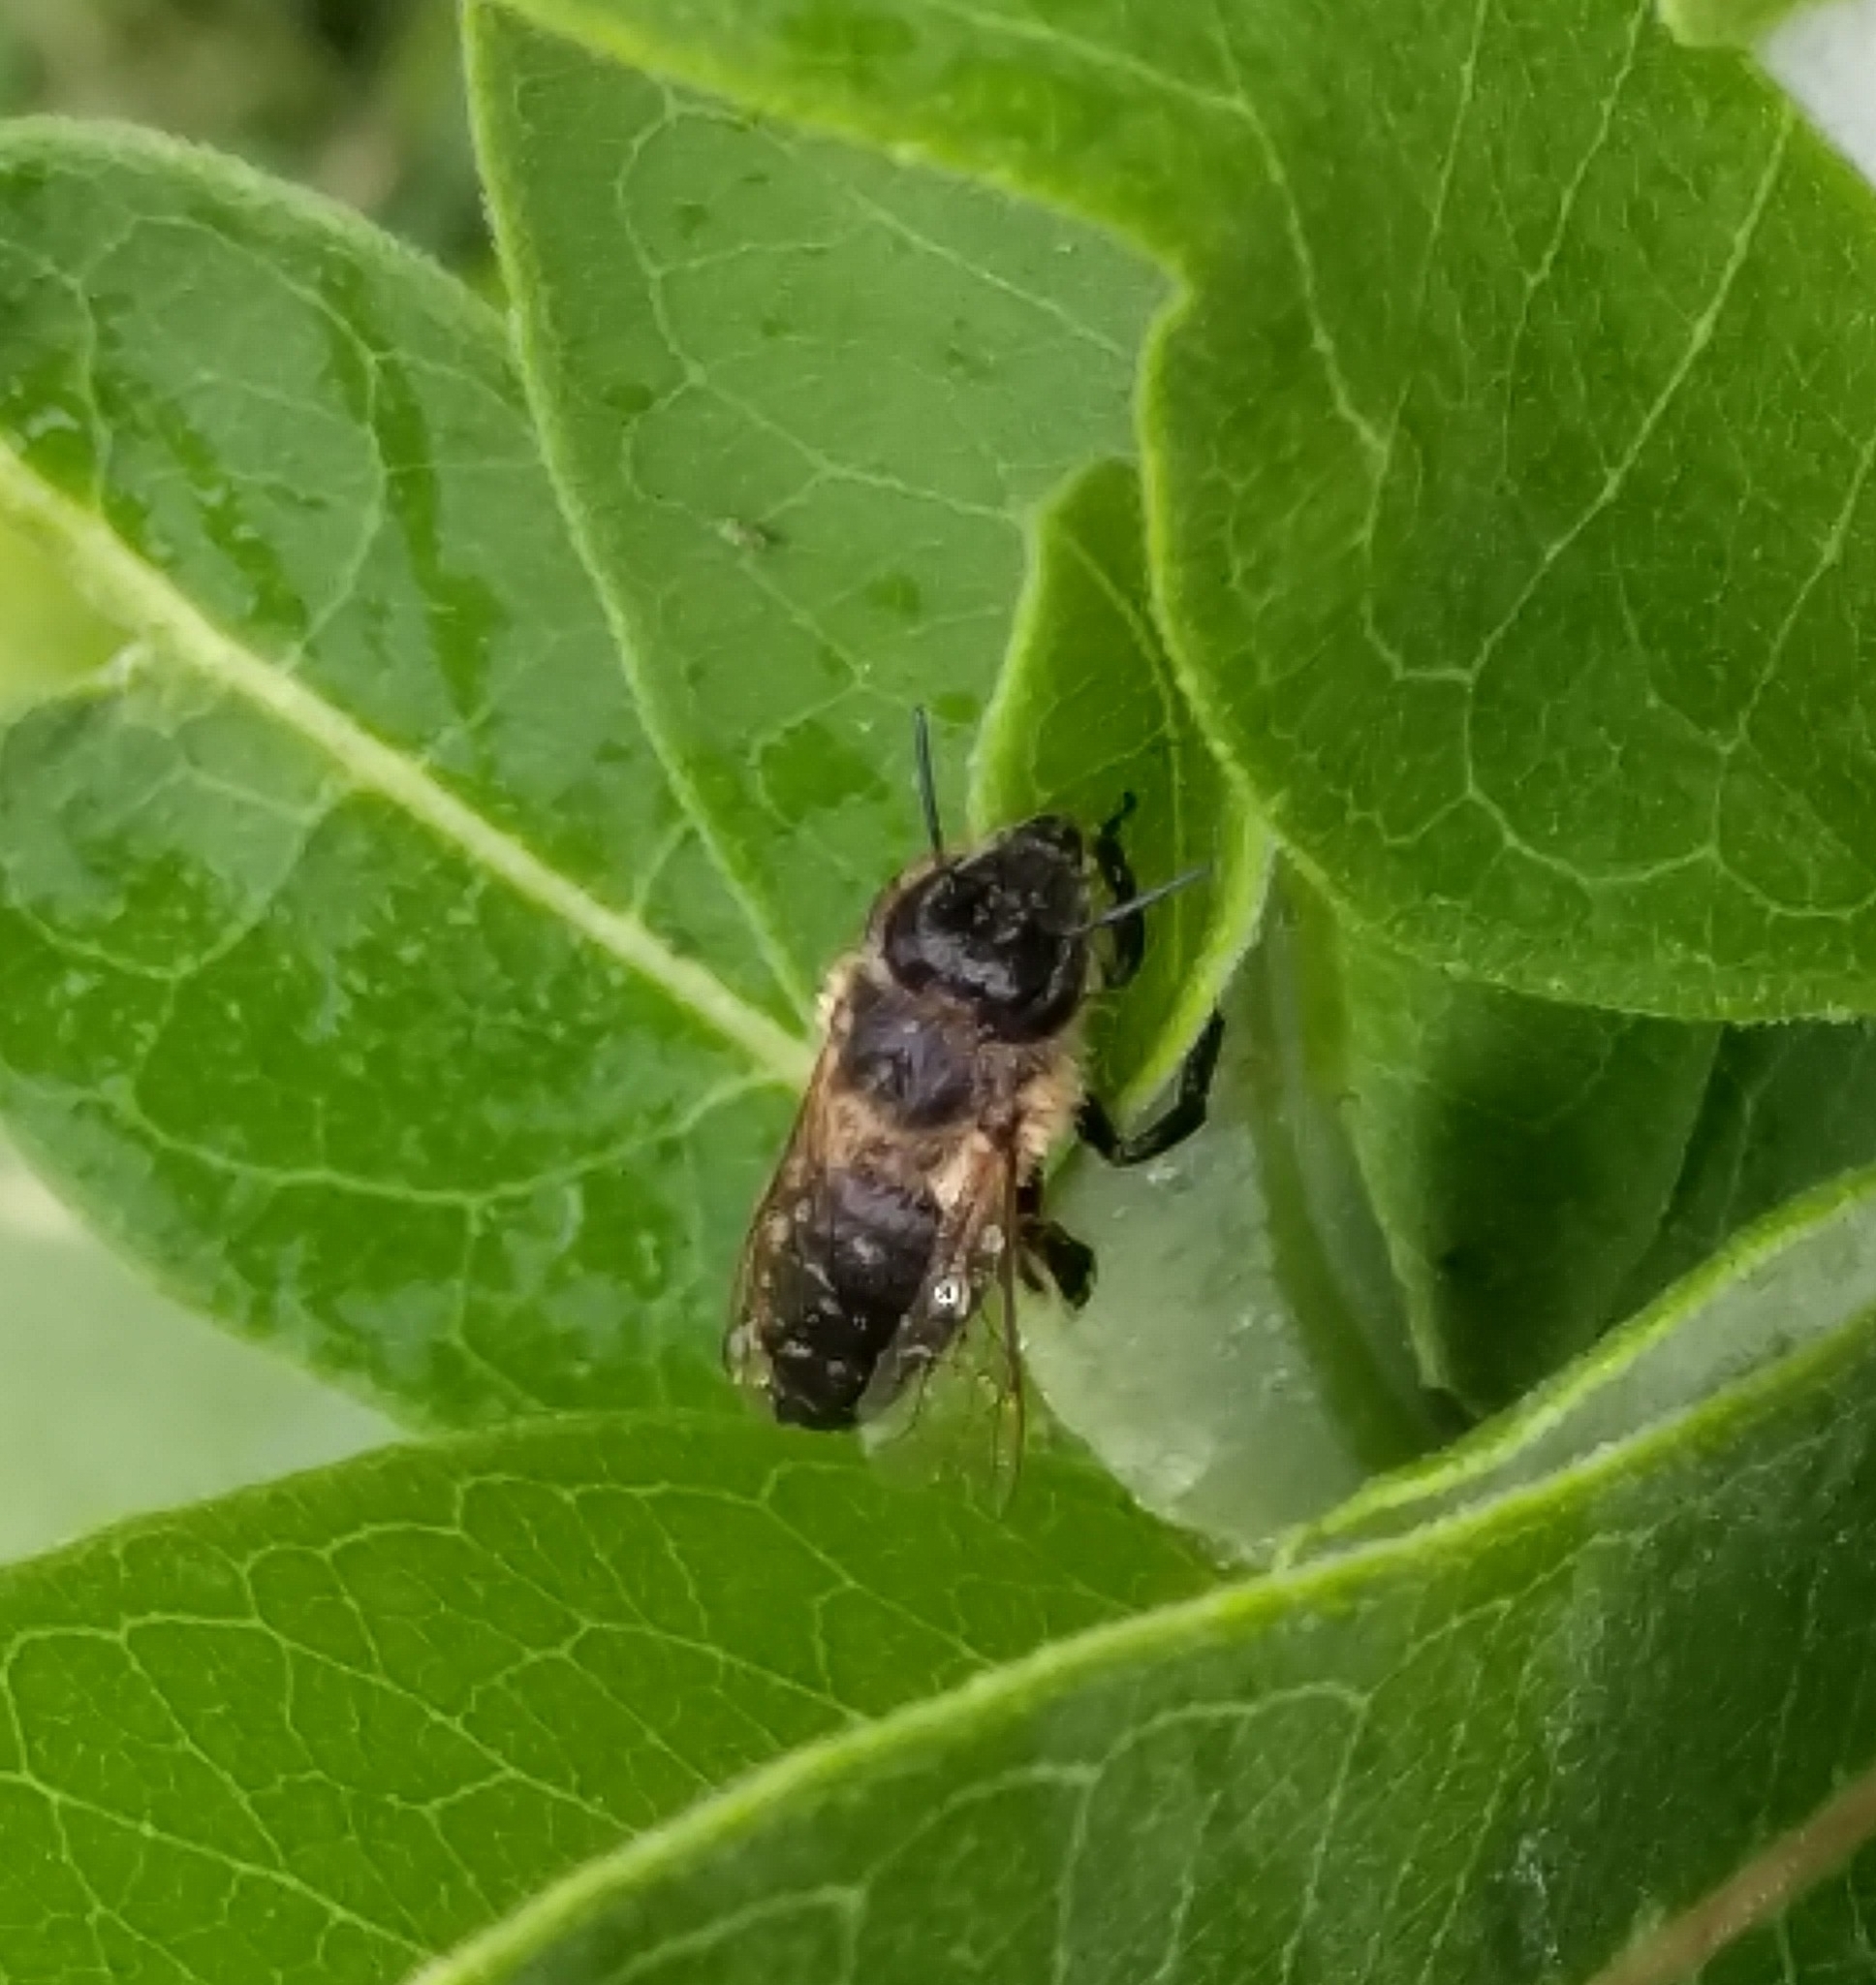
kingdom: Animalia
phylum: Arthropoda
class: Insecta
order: Hymenoptera
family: Apidae
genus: Apis
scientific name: Apis mellifera
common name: Honey bee
